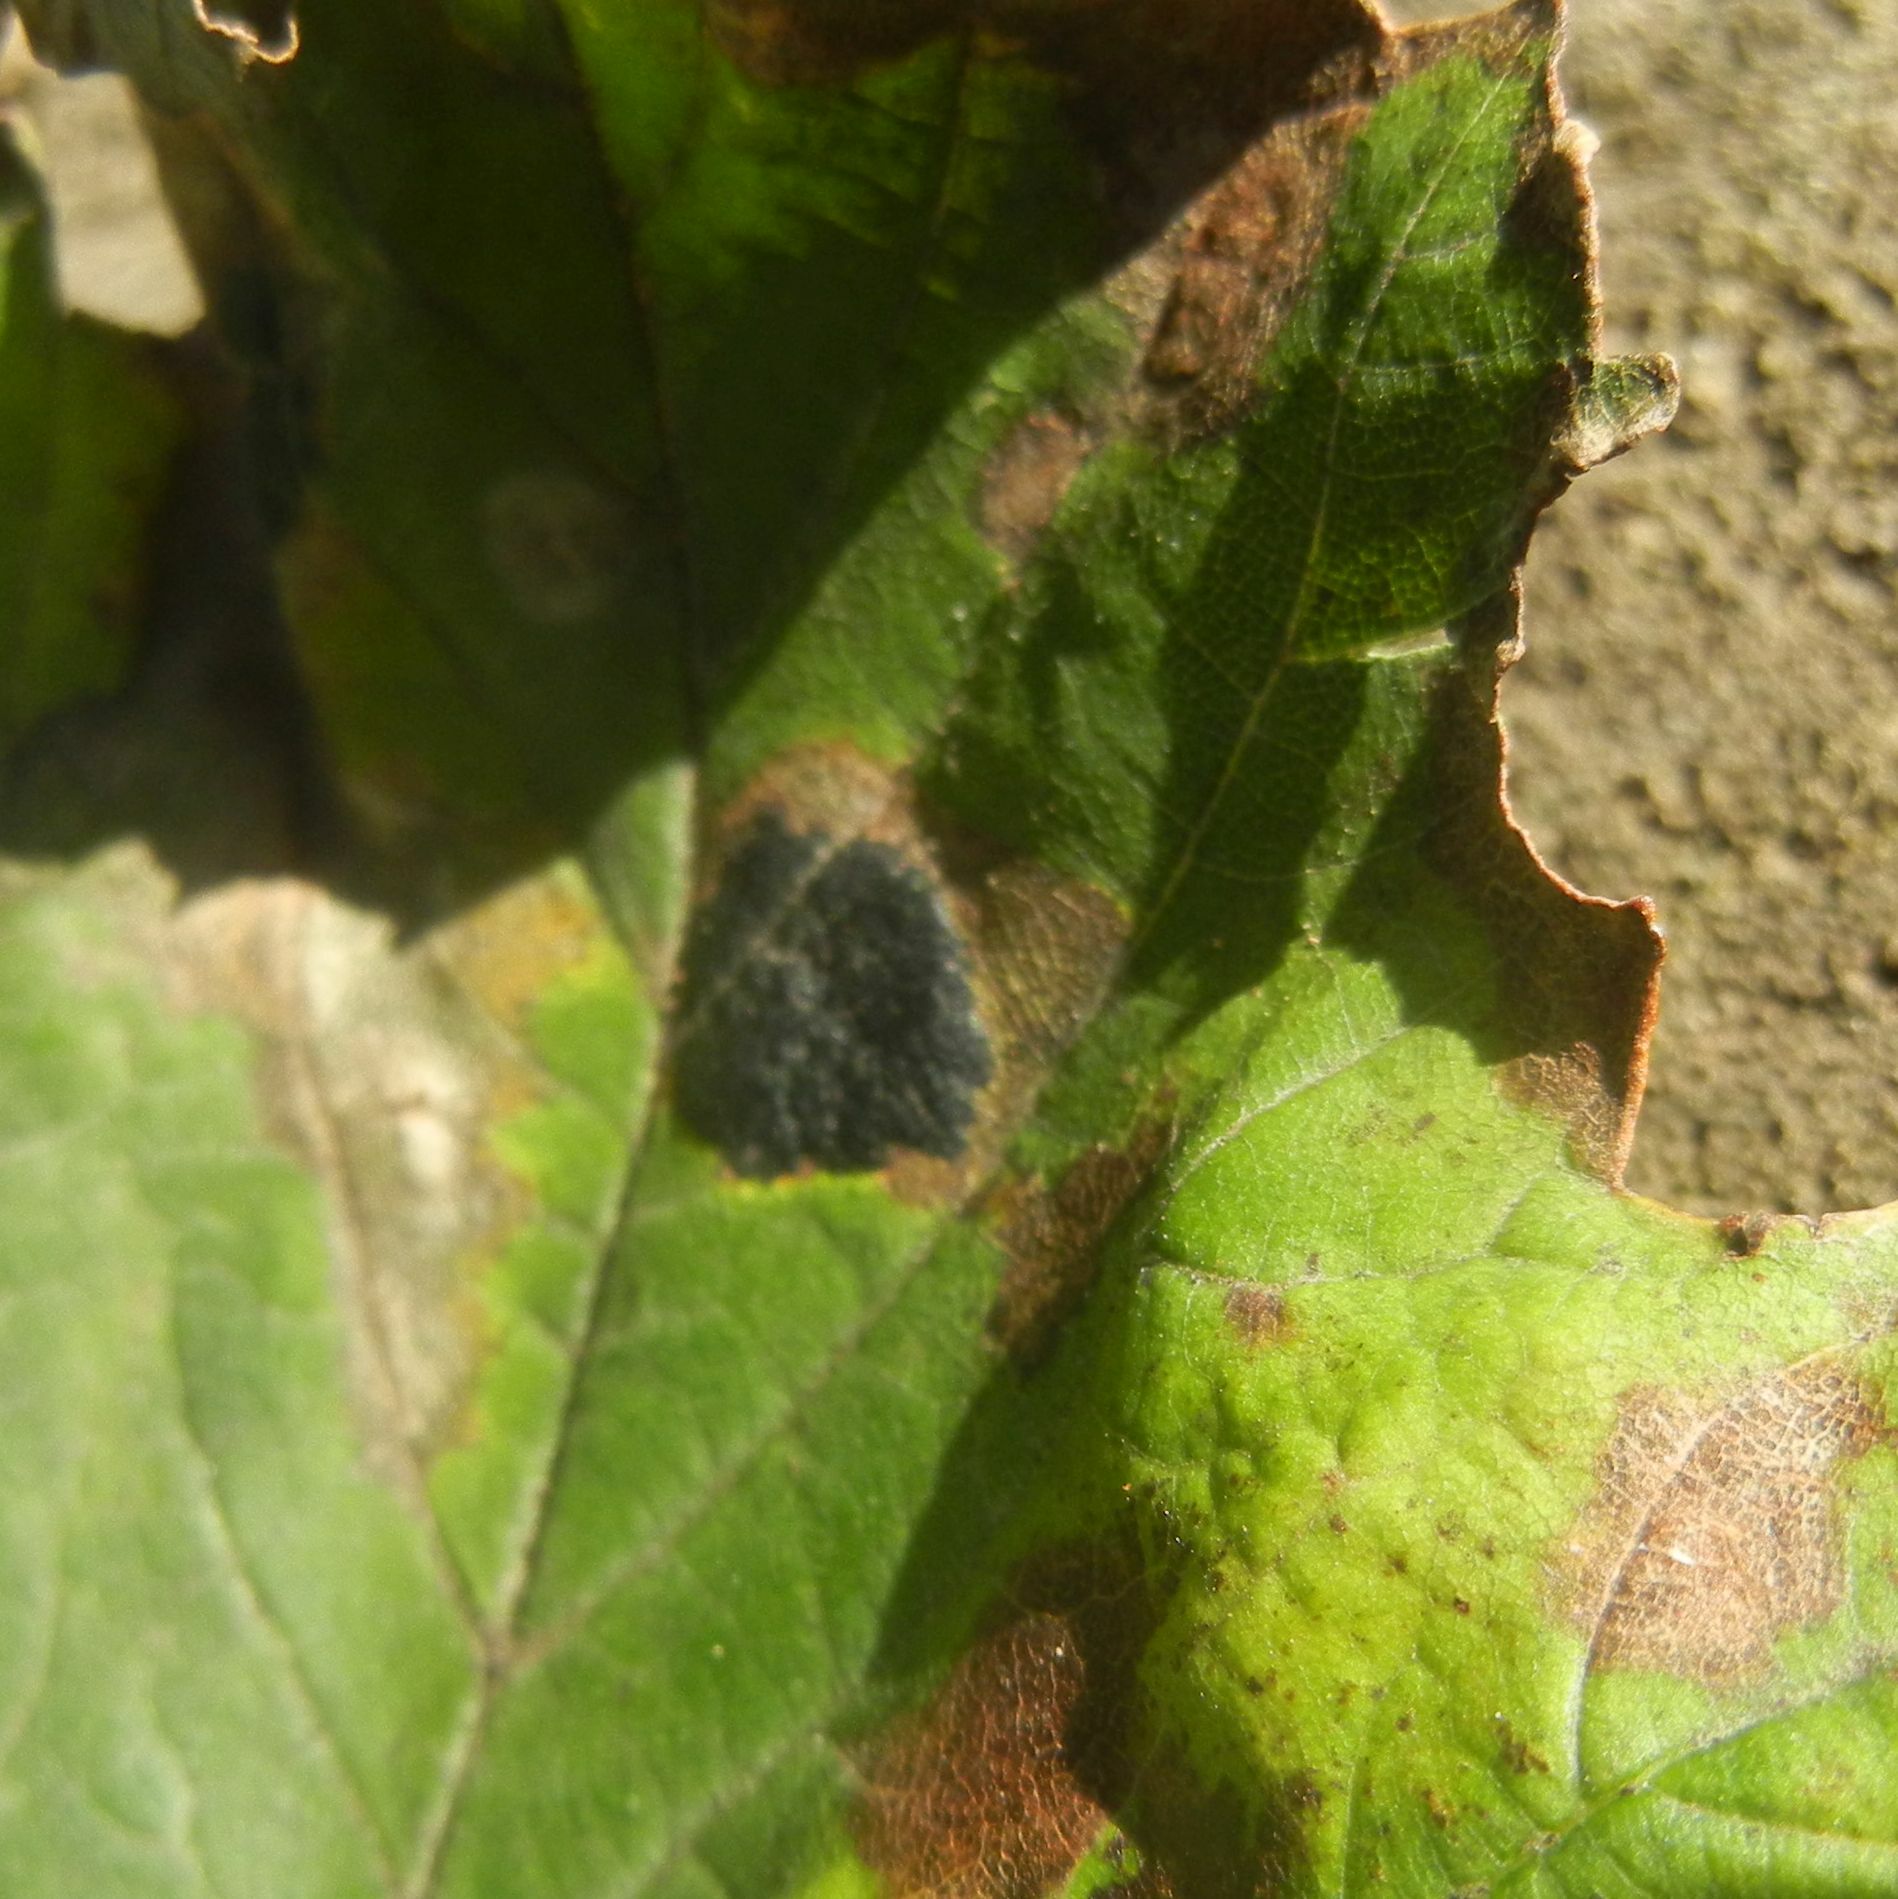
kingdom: Fungi
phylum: Ascomycota
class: Leotiomycetes
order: Rhytismatales
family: Rhytismataceae
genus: Rhytisma
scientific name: Rhytisma acerinum
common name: European tar spot
